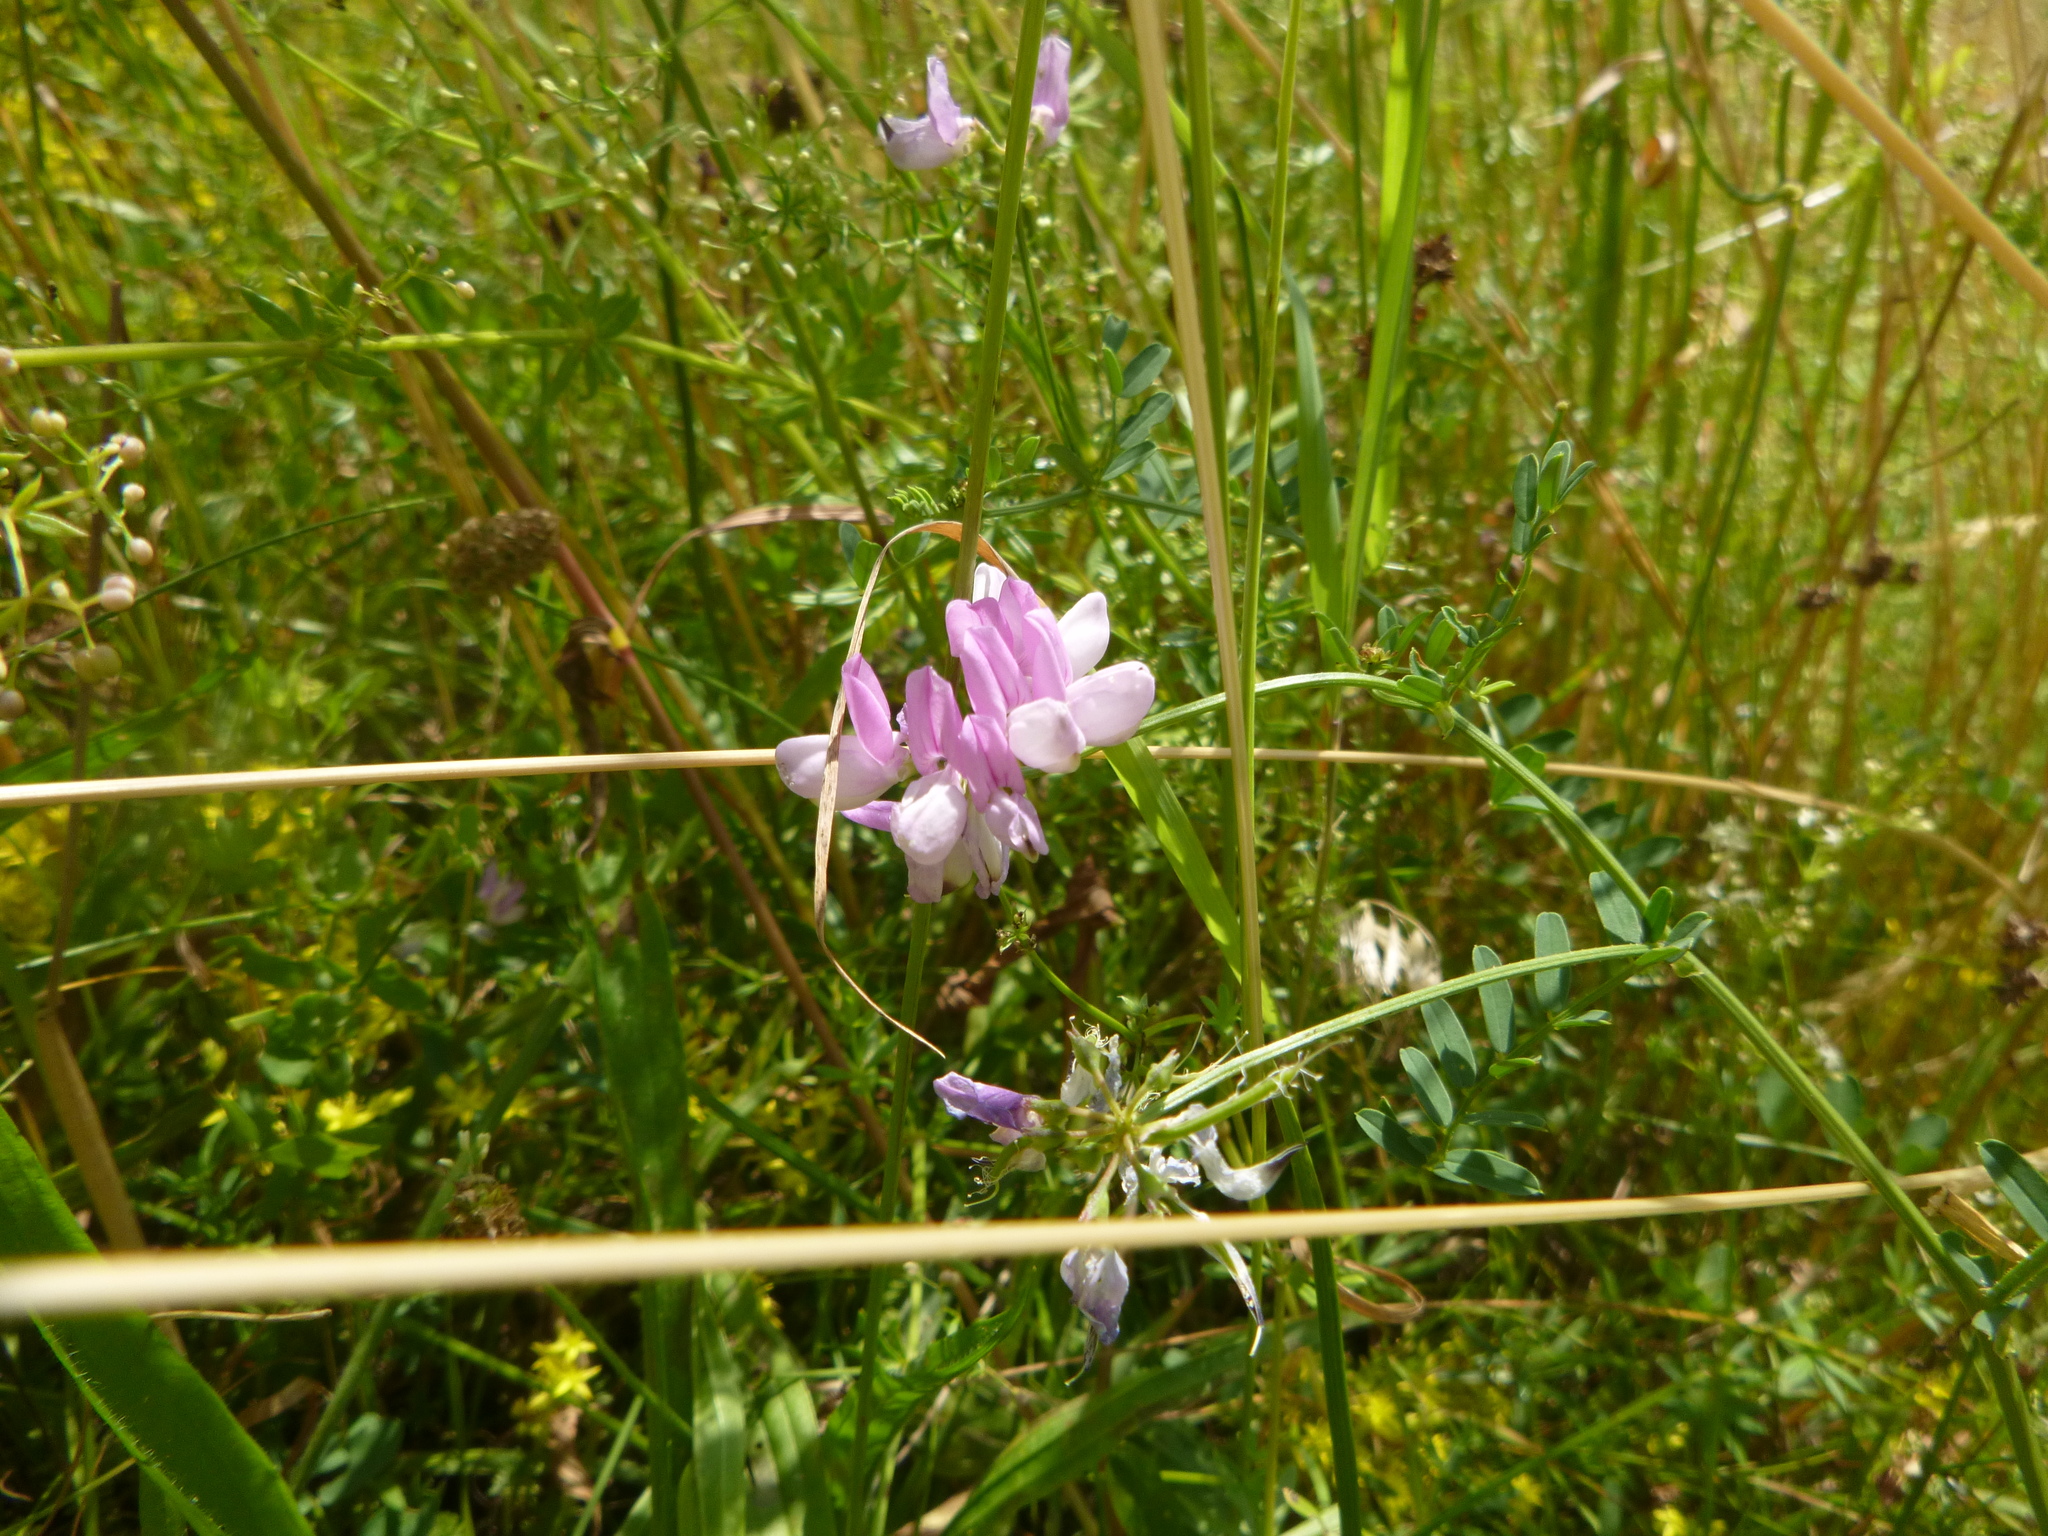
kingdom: Plantae
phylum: Tracheophyta
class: Magnoliopsida
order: Fabales
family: Fabaceae
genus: Coronilla
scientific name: Coronilla varia
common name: Crownvetch
